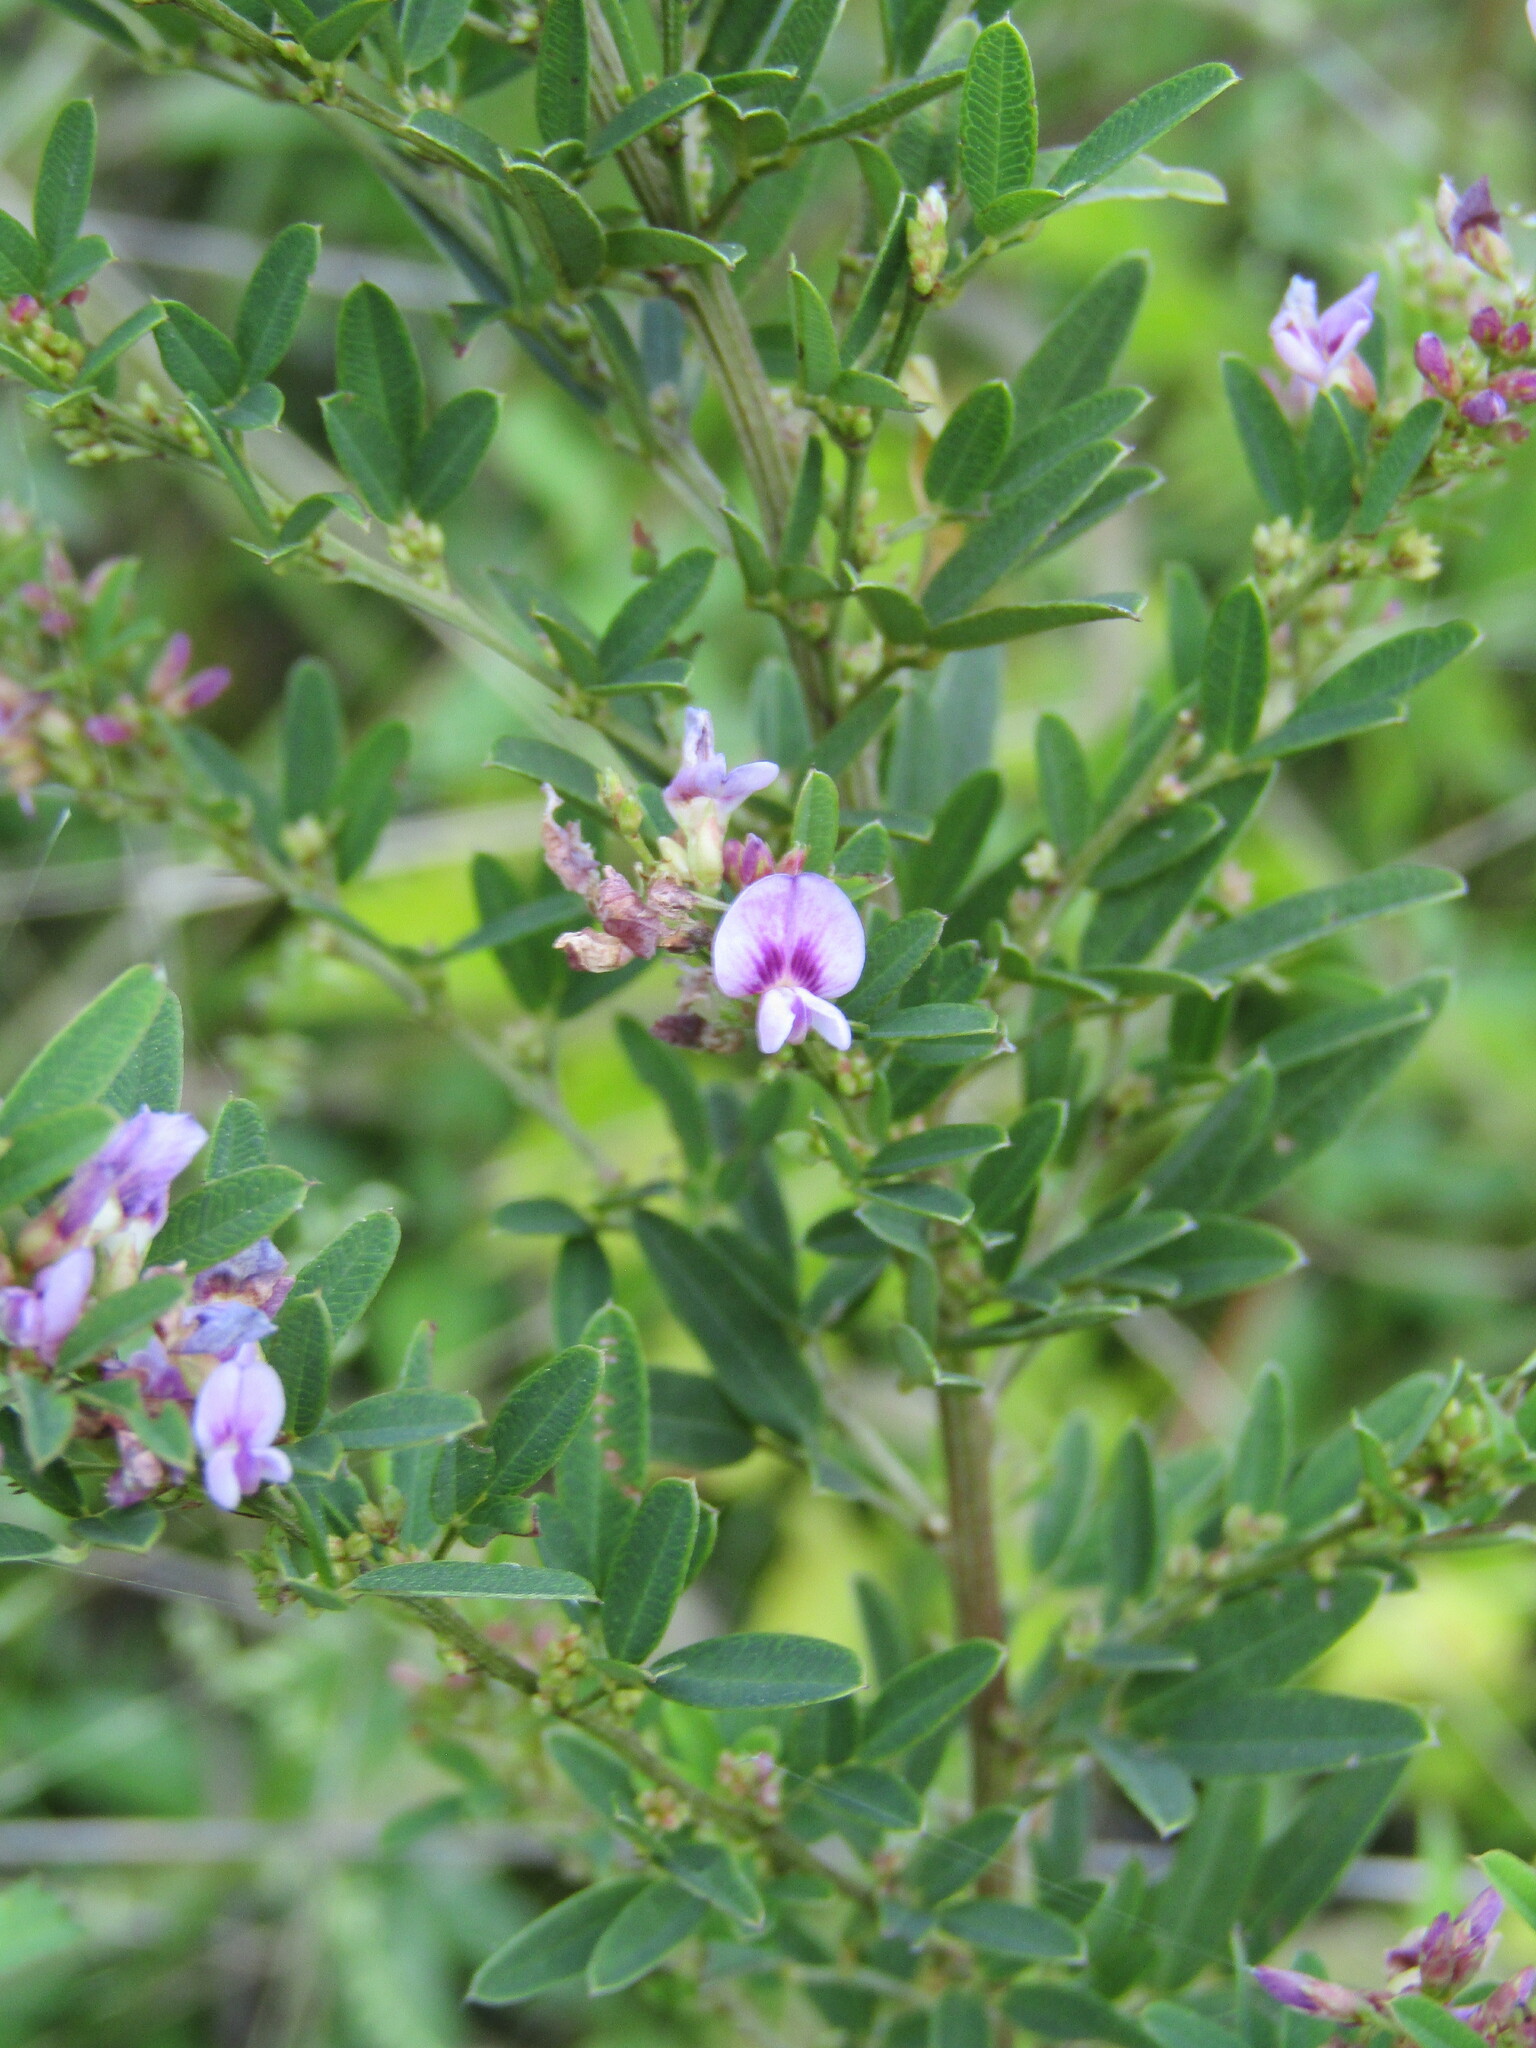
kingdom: Plantae
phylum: Tracheophyta
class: Magnoliopsida
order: Fabales
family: Fabaceae
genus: Lespedeza
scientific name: Lespedeza virginica
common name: Slender bush-clover
